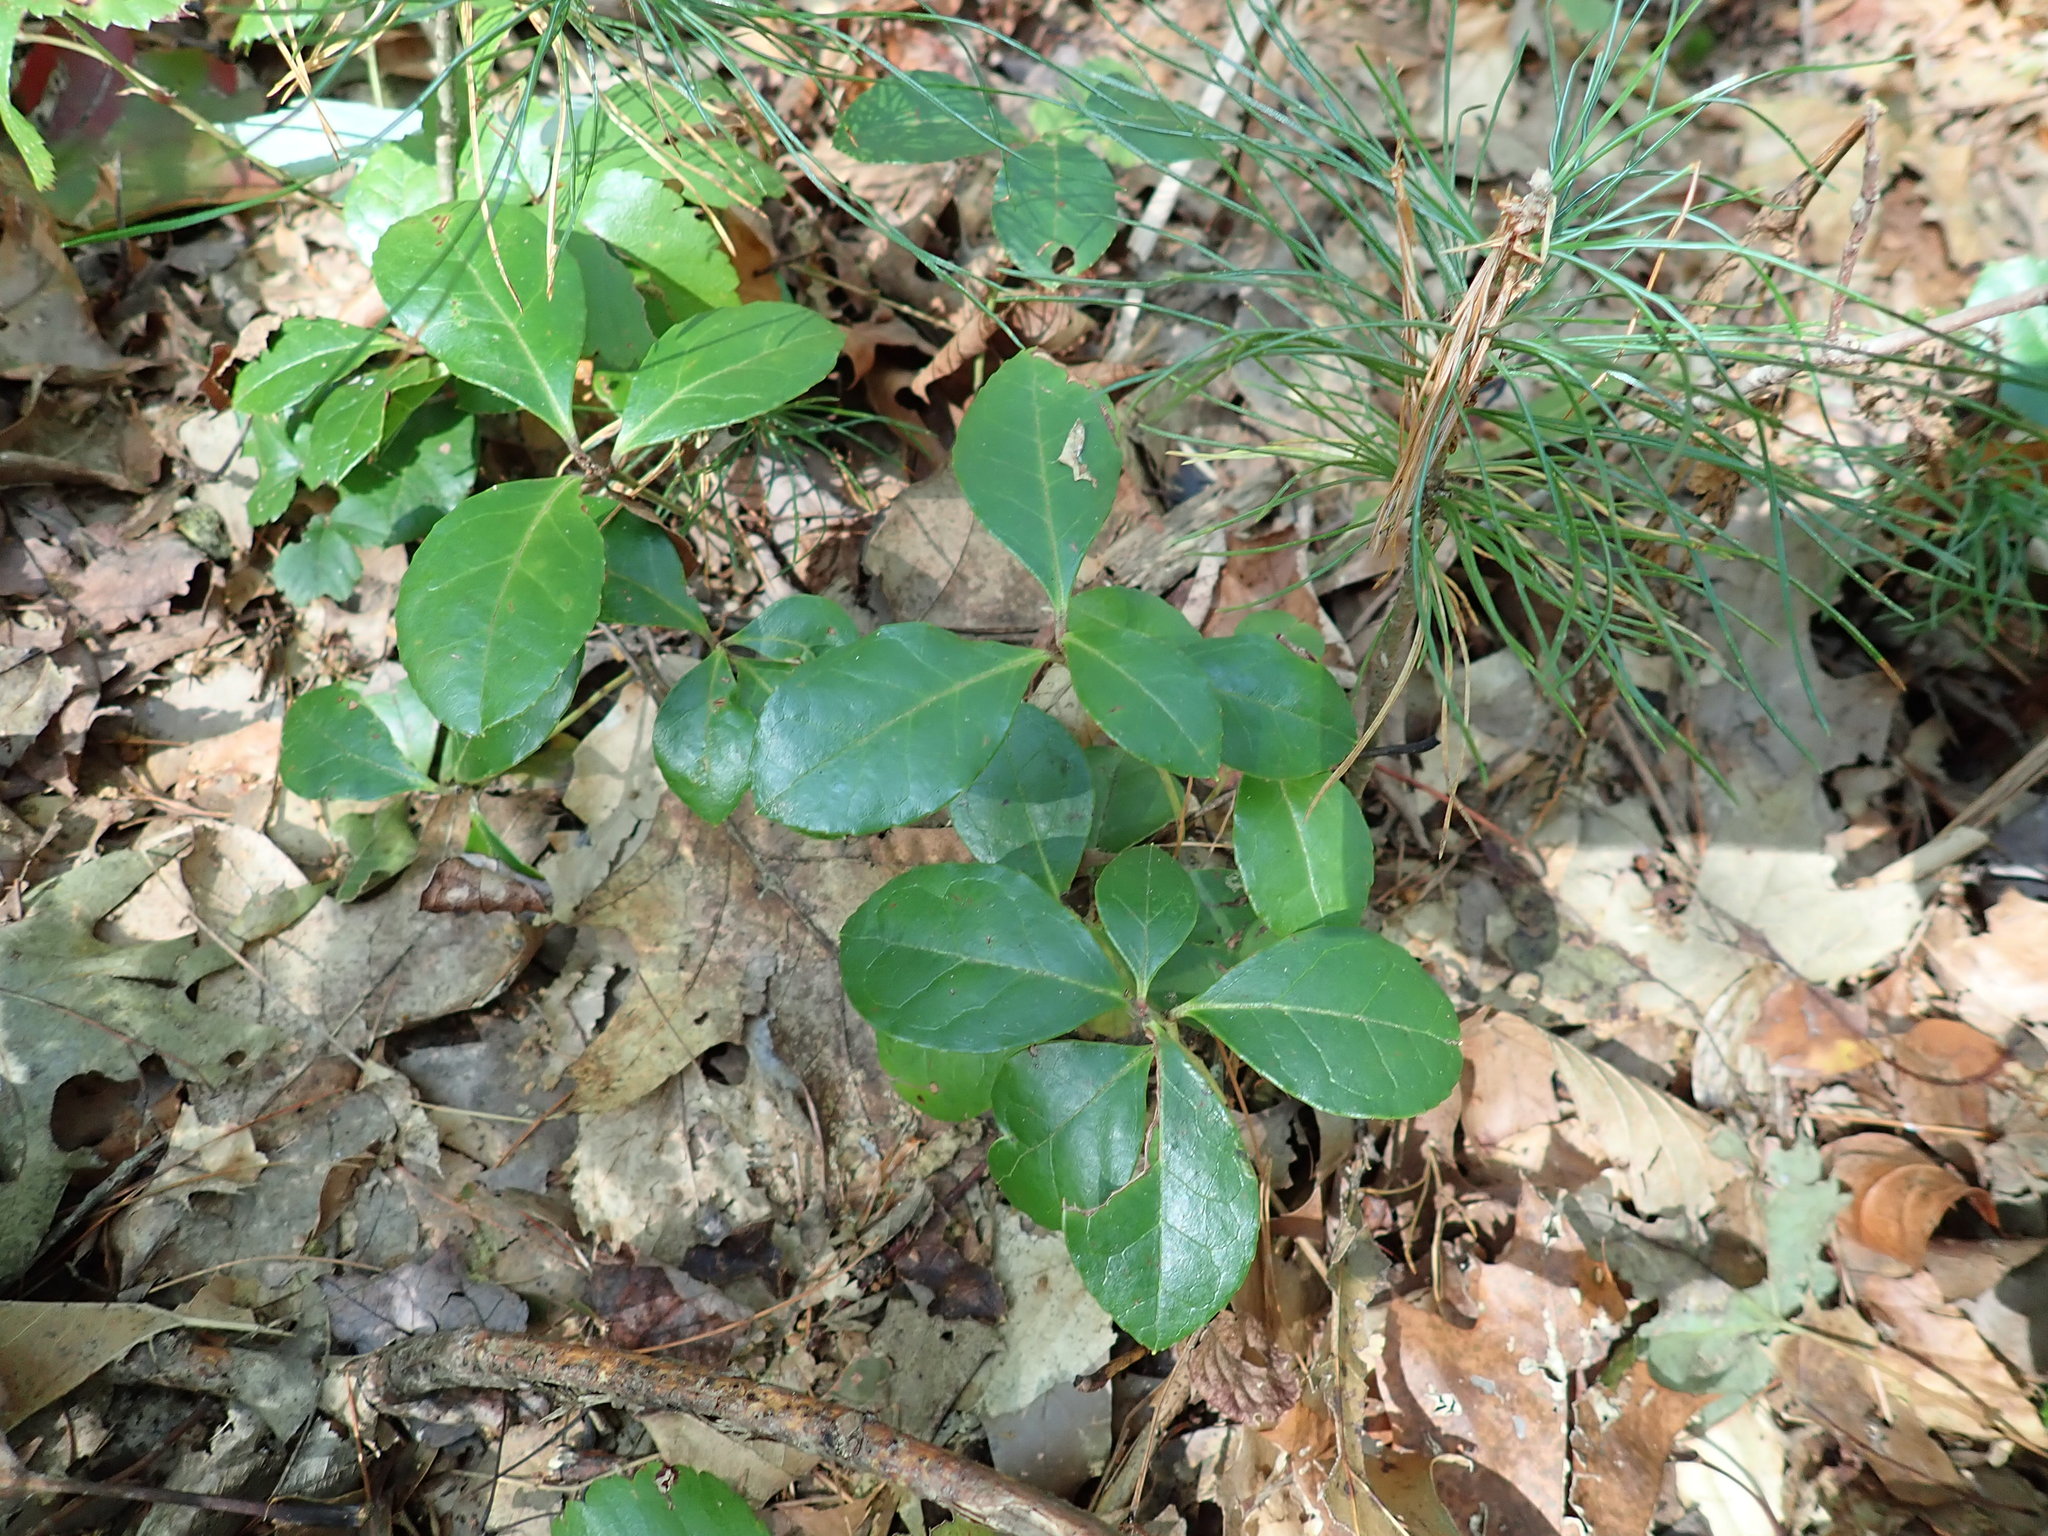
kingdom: Plantae
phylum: Tracheophyta
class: Magnoliopsida
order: Ericales
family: Ericaceae
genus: Gaultheria
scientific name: Gaultheria procumbens
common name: Checkerberry
